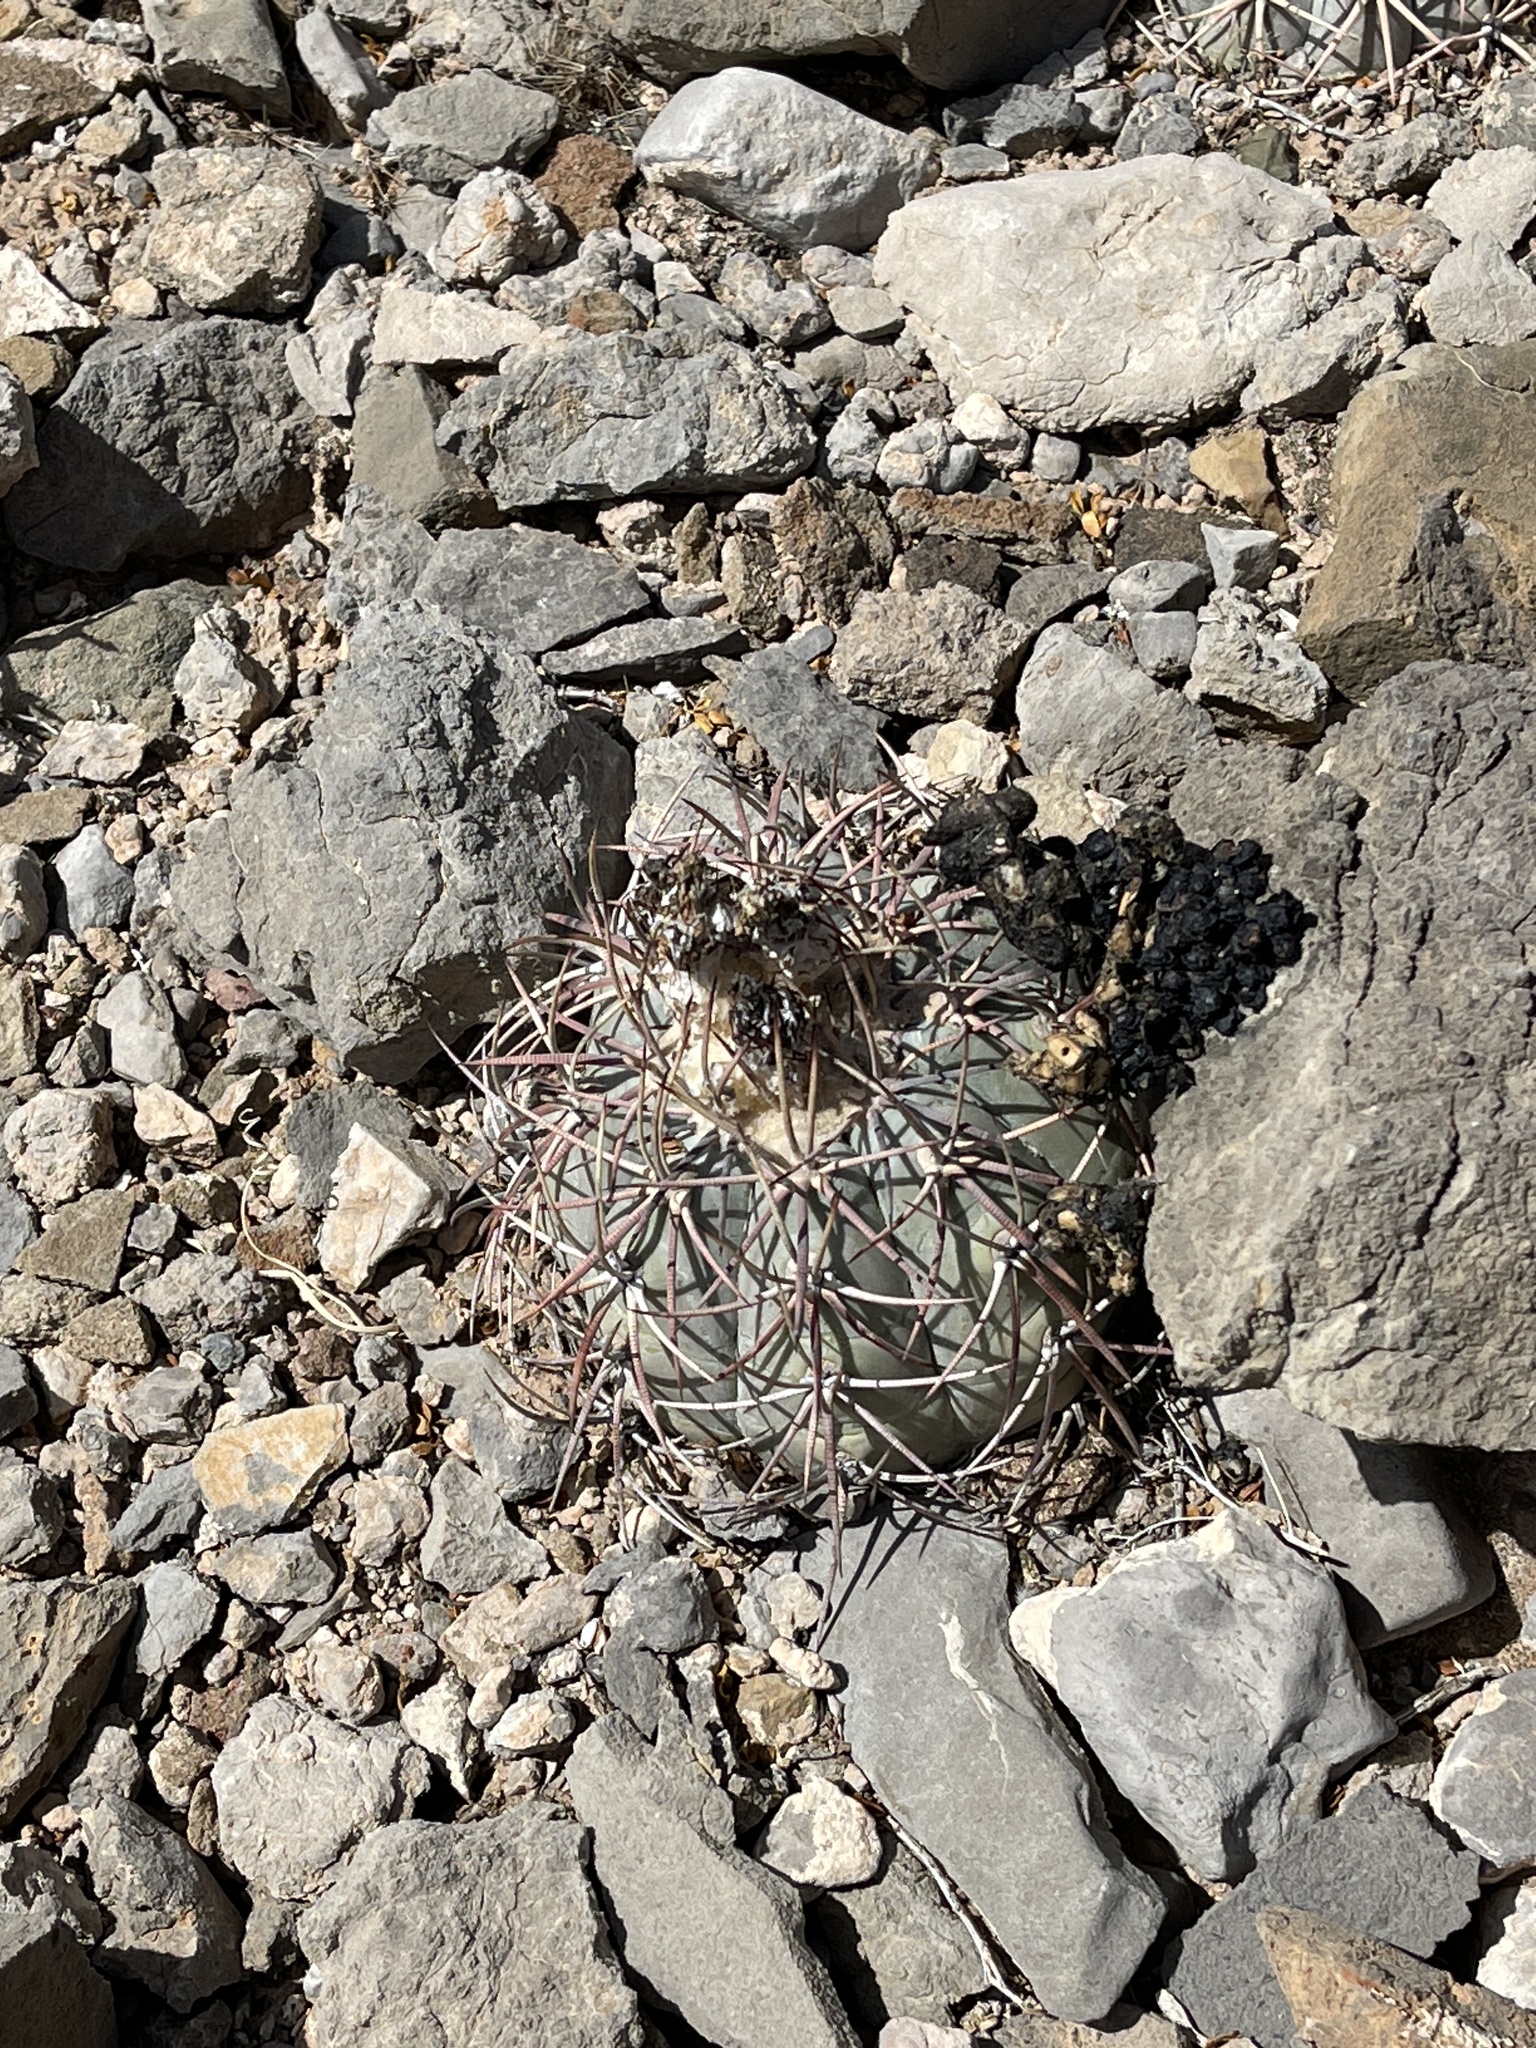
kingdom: Plantae
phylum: Tracheophyta
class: Magnoliopsida
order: Caryophyllales
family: Cactaceae
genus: Echinocactus
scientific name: Echinocactus horizonthalonius
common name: Devilshead
